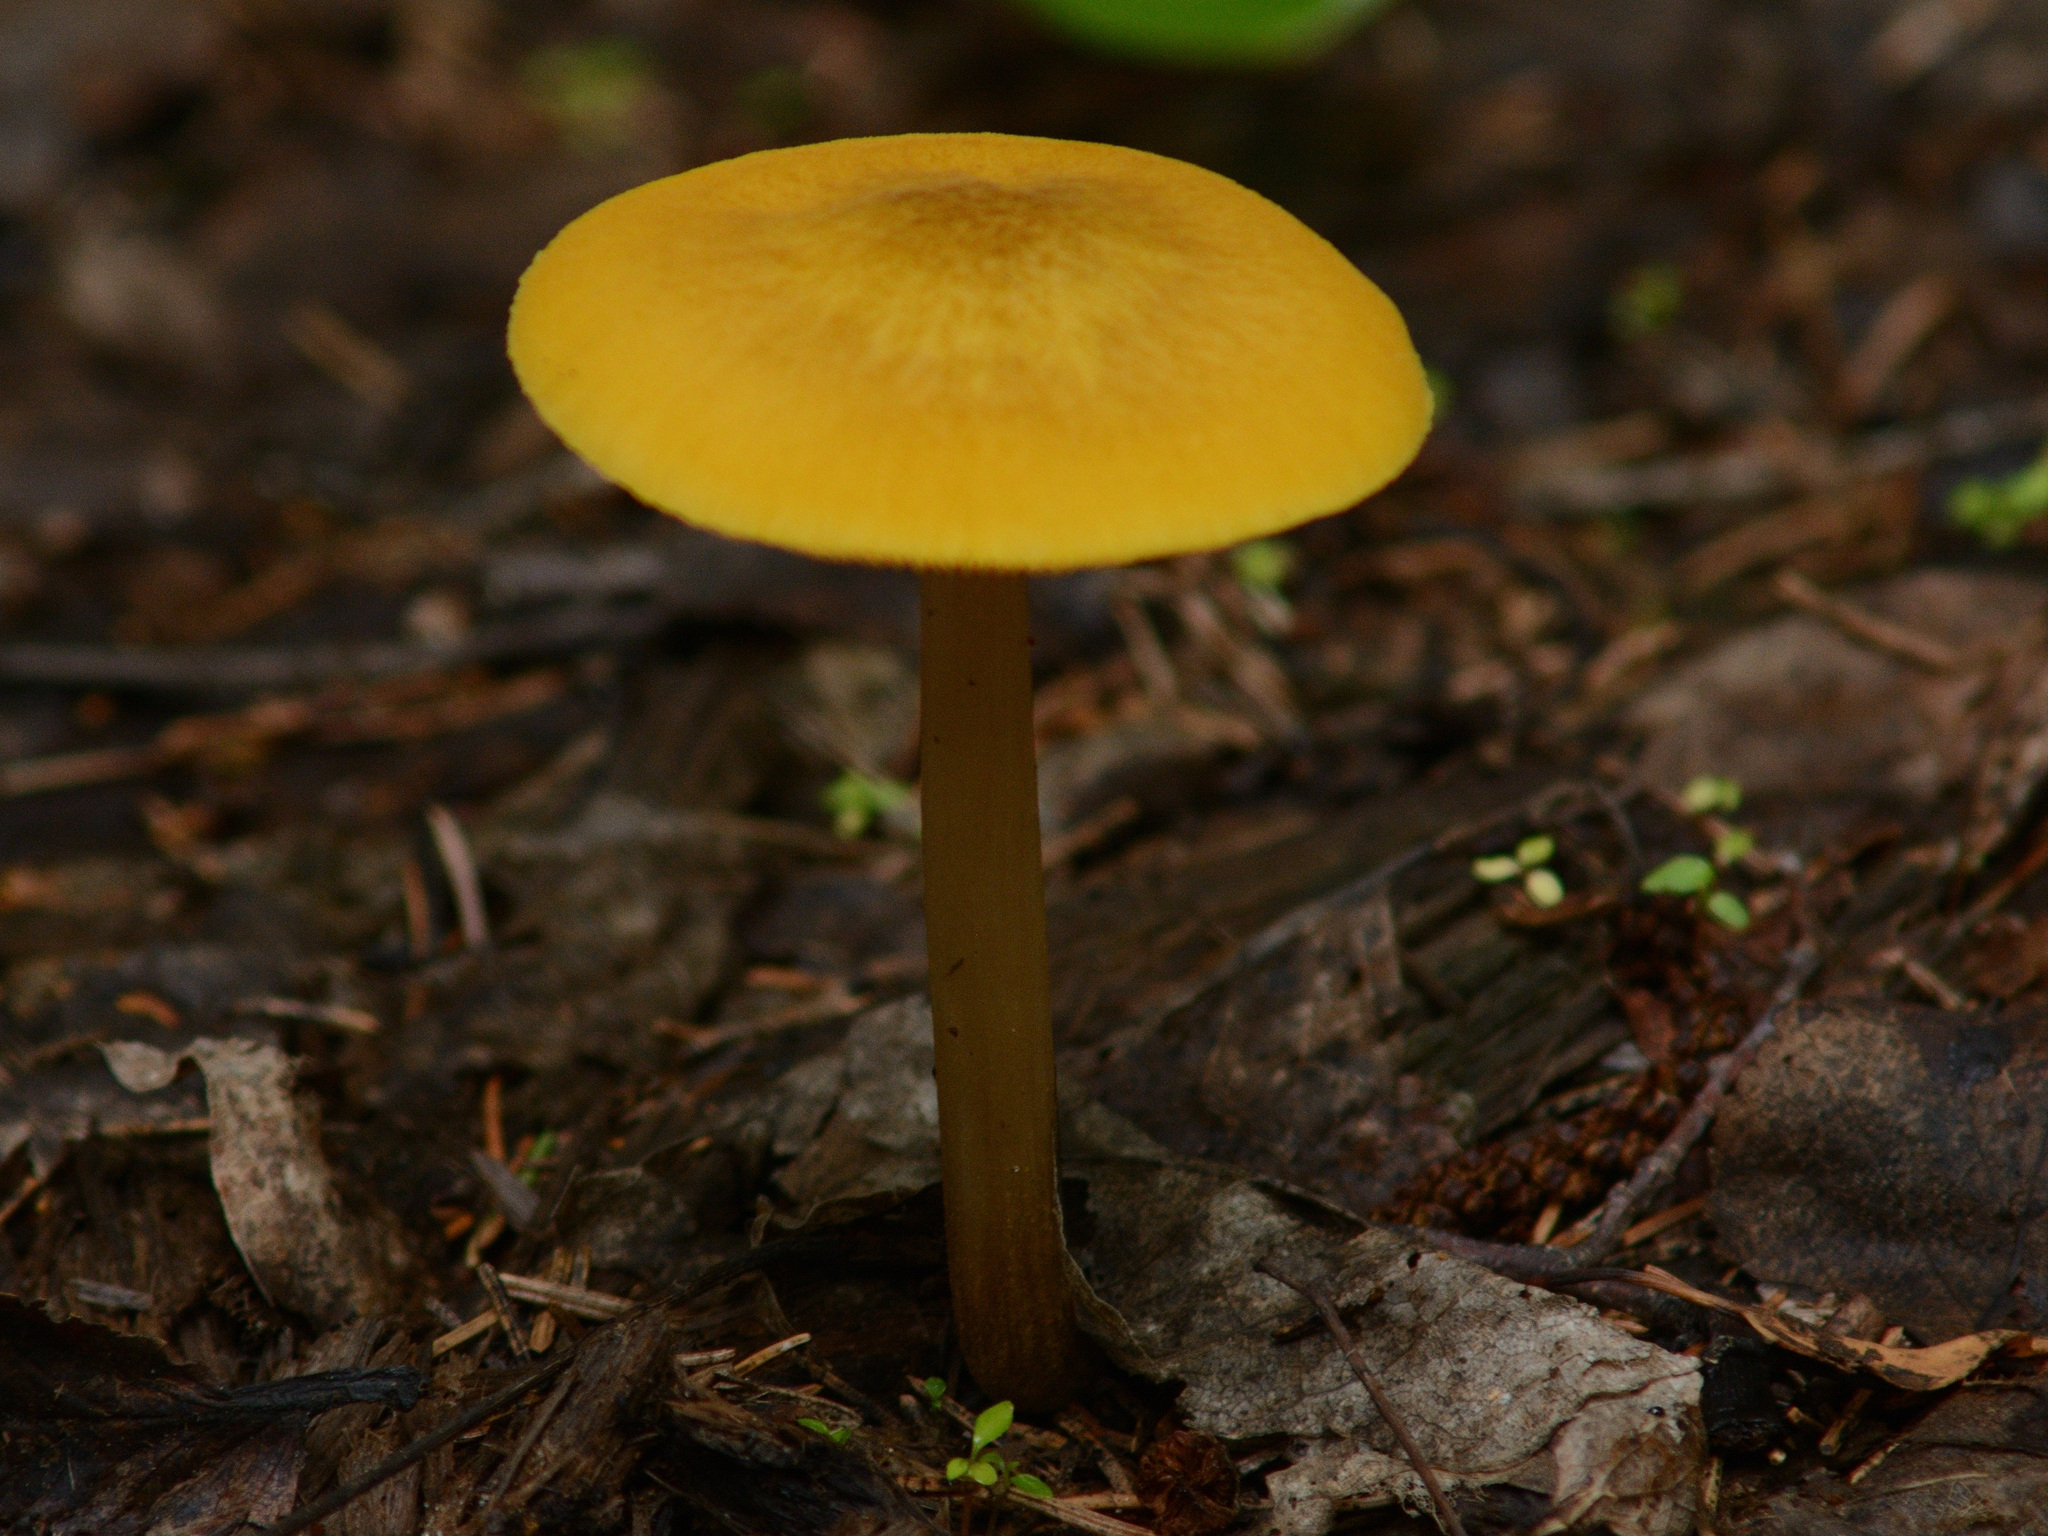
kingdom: Fungi
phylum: Basidiomycota
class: Agaricomycetes
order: Agaricales
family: Pluteaceae
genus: Pluteus
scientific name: Pluteus leoninus
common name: Lion shield
